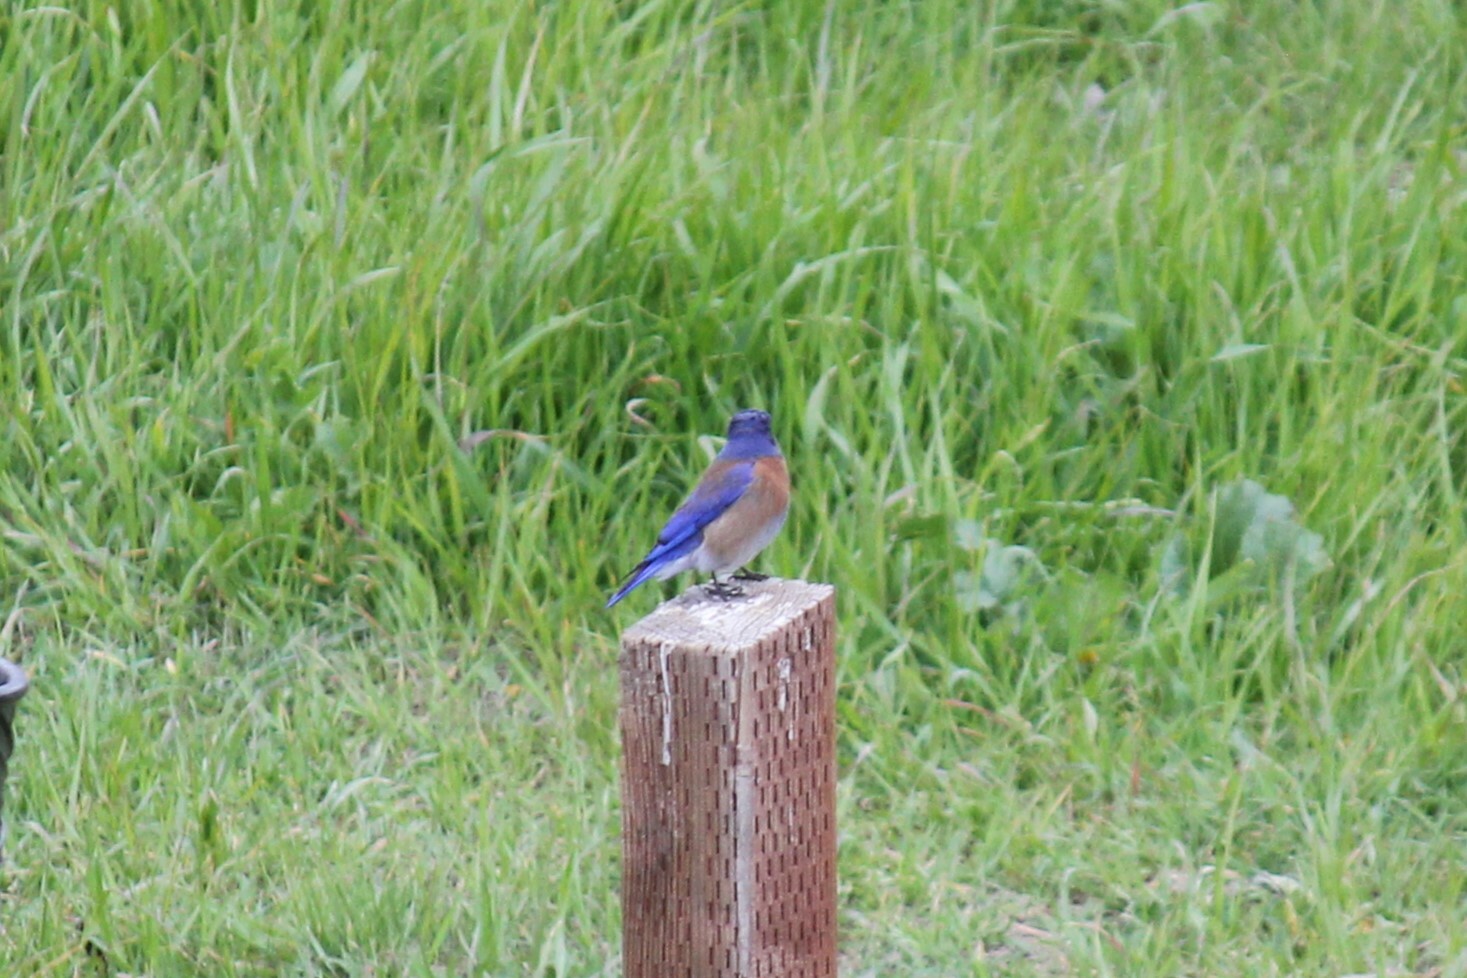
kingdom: Animalia
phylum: Chordata
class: Aves
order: Passeriformes
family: Turdidae
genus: Sialia
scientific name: Sialia mexicana
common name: Western bluebird
